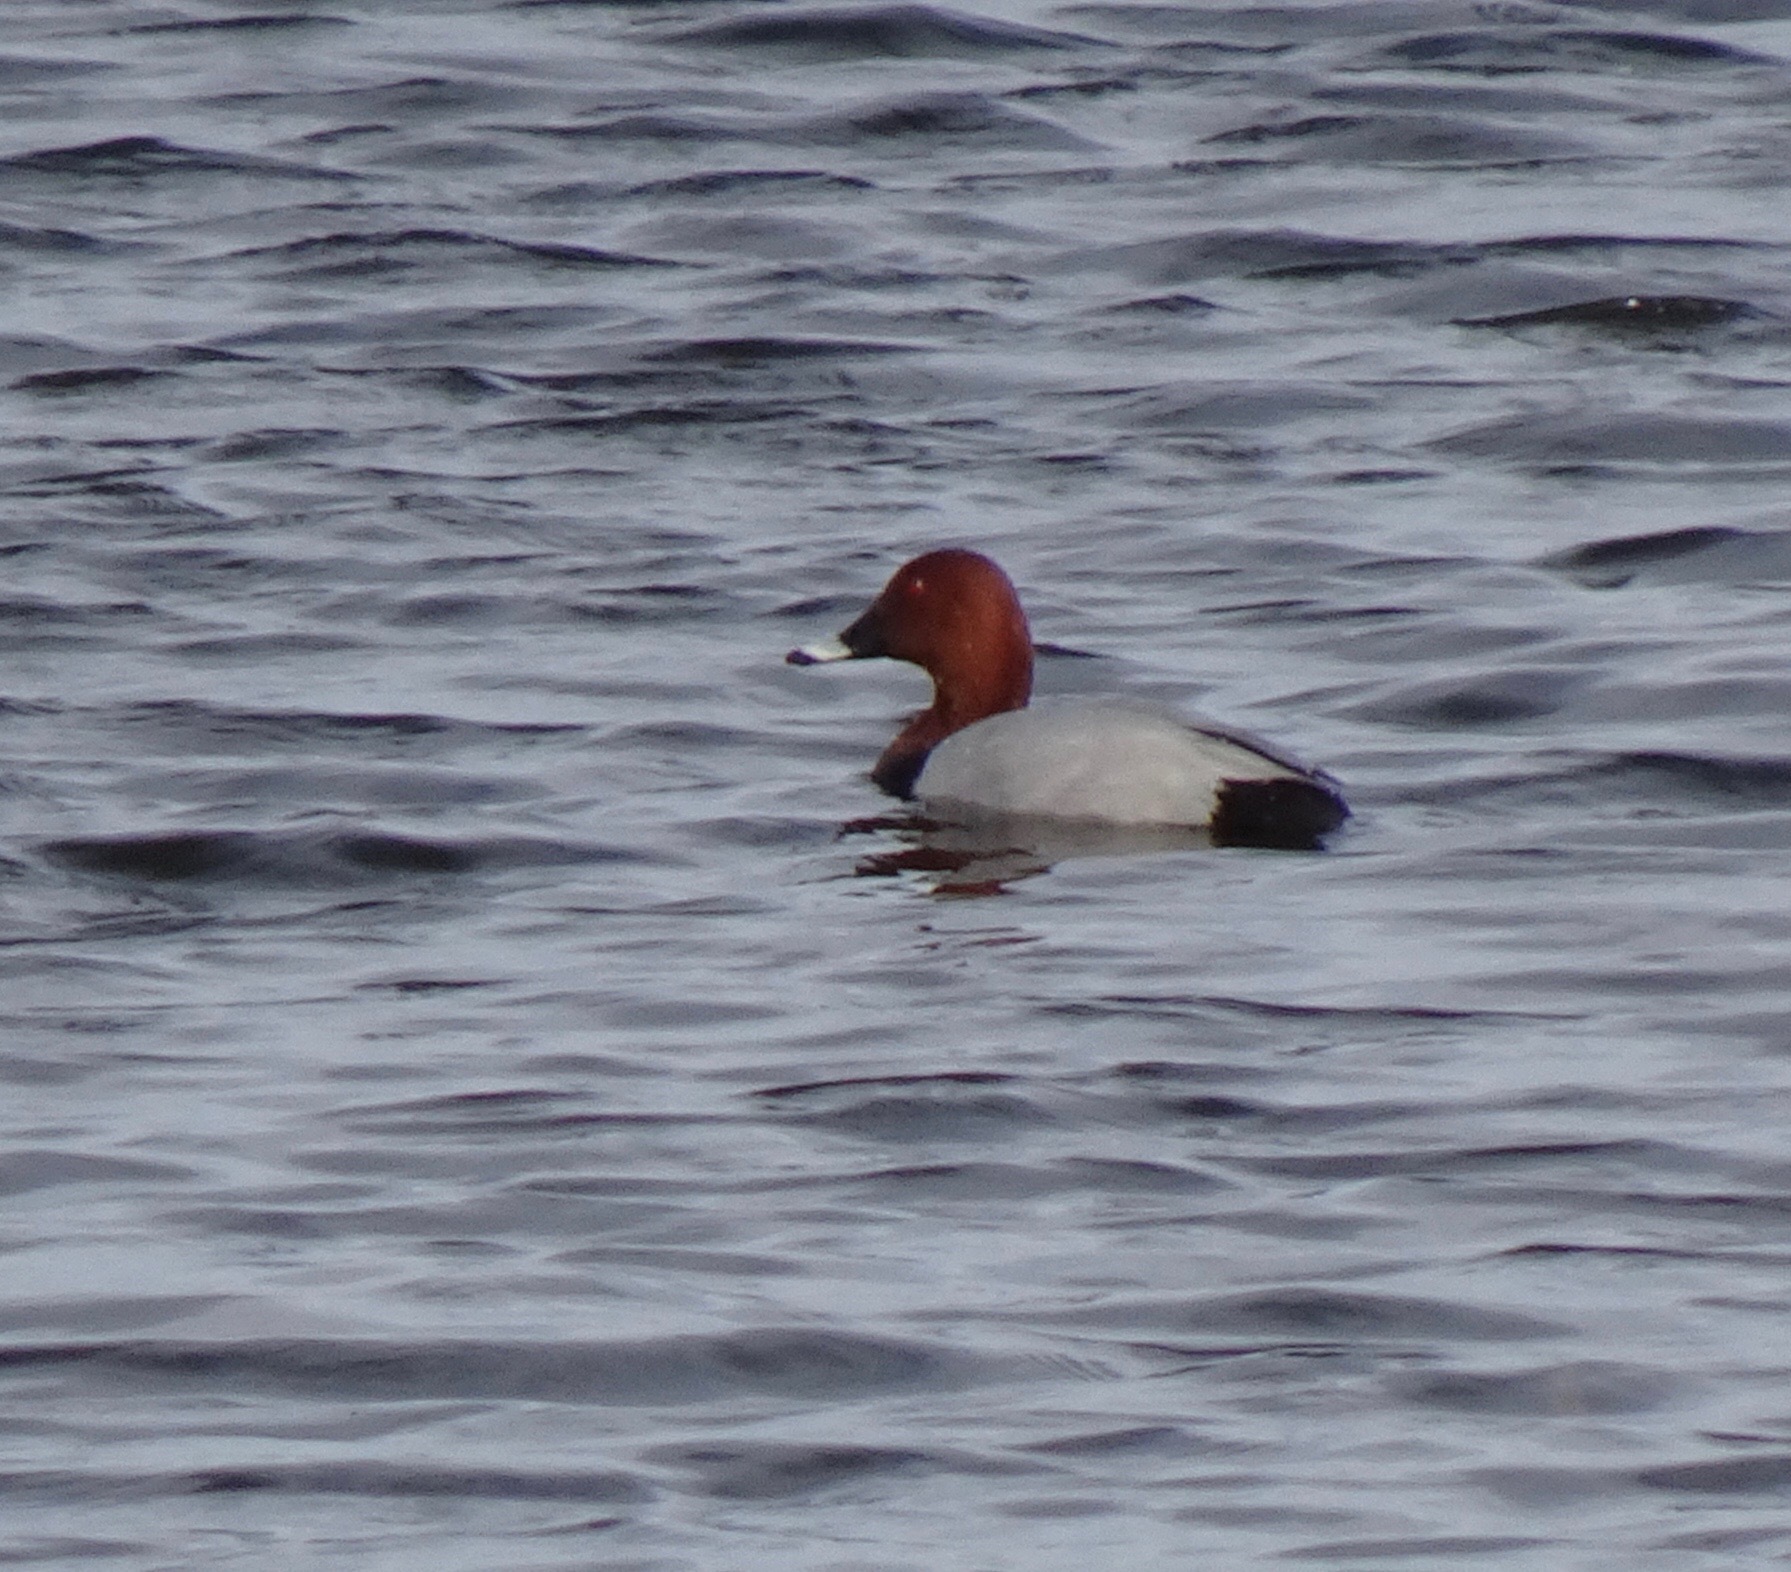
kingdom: Animalia
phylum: Chordata
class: Aves
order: Anseriformes
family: Anatidae
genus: Aythya
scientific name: Aythya ferina
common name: Common pochard
